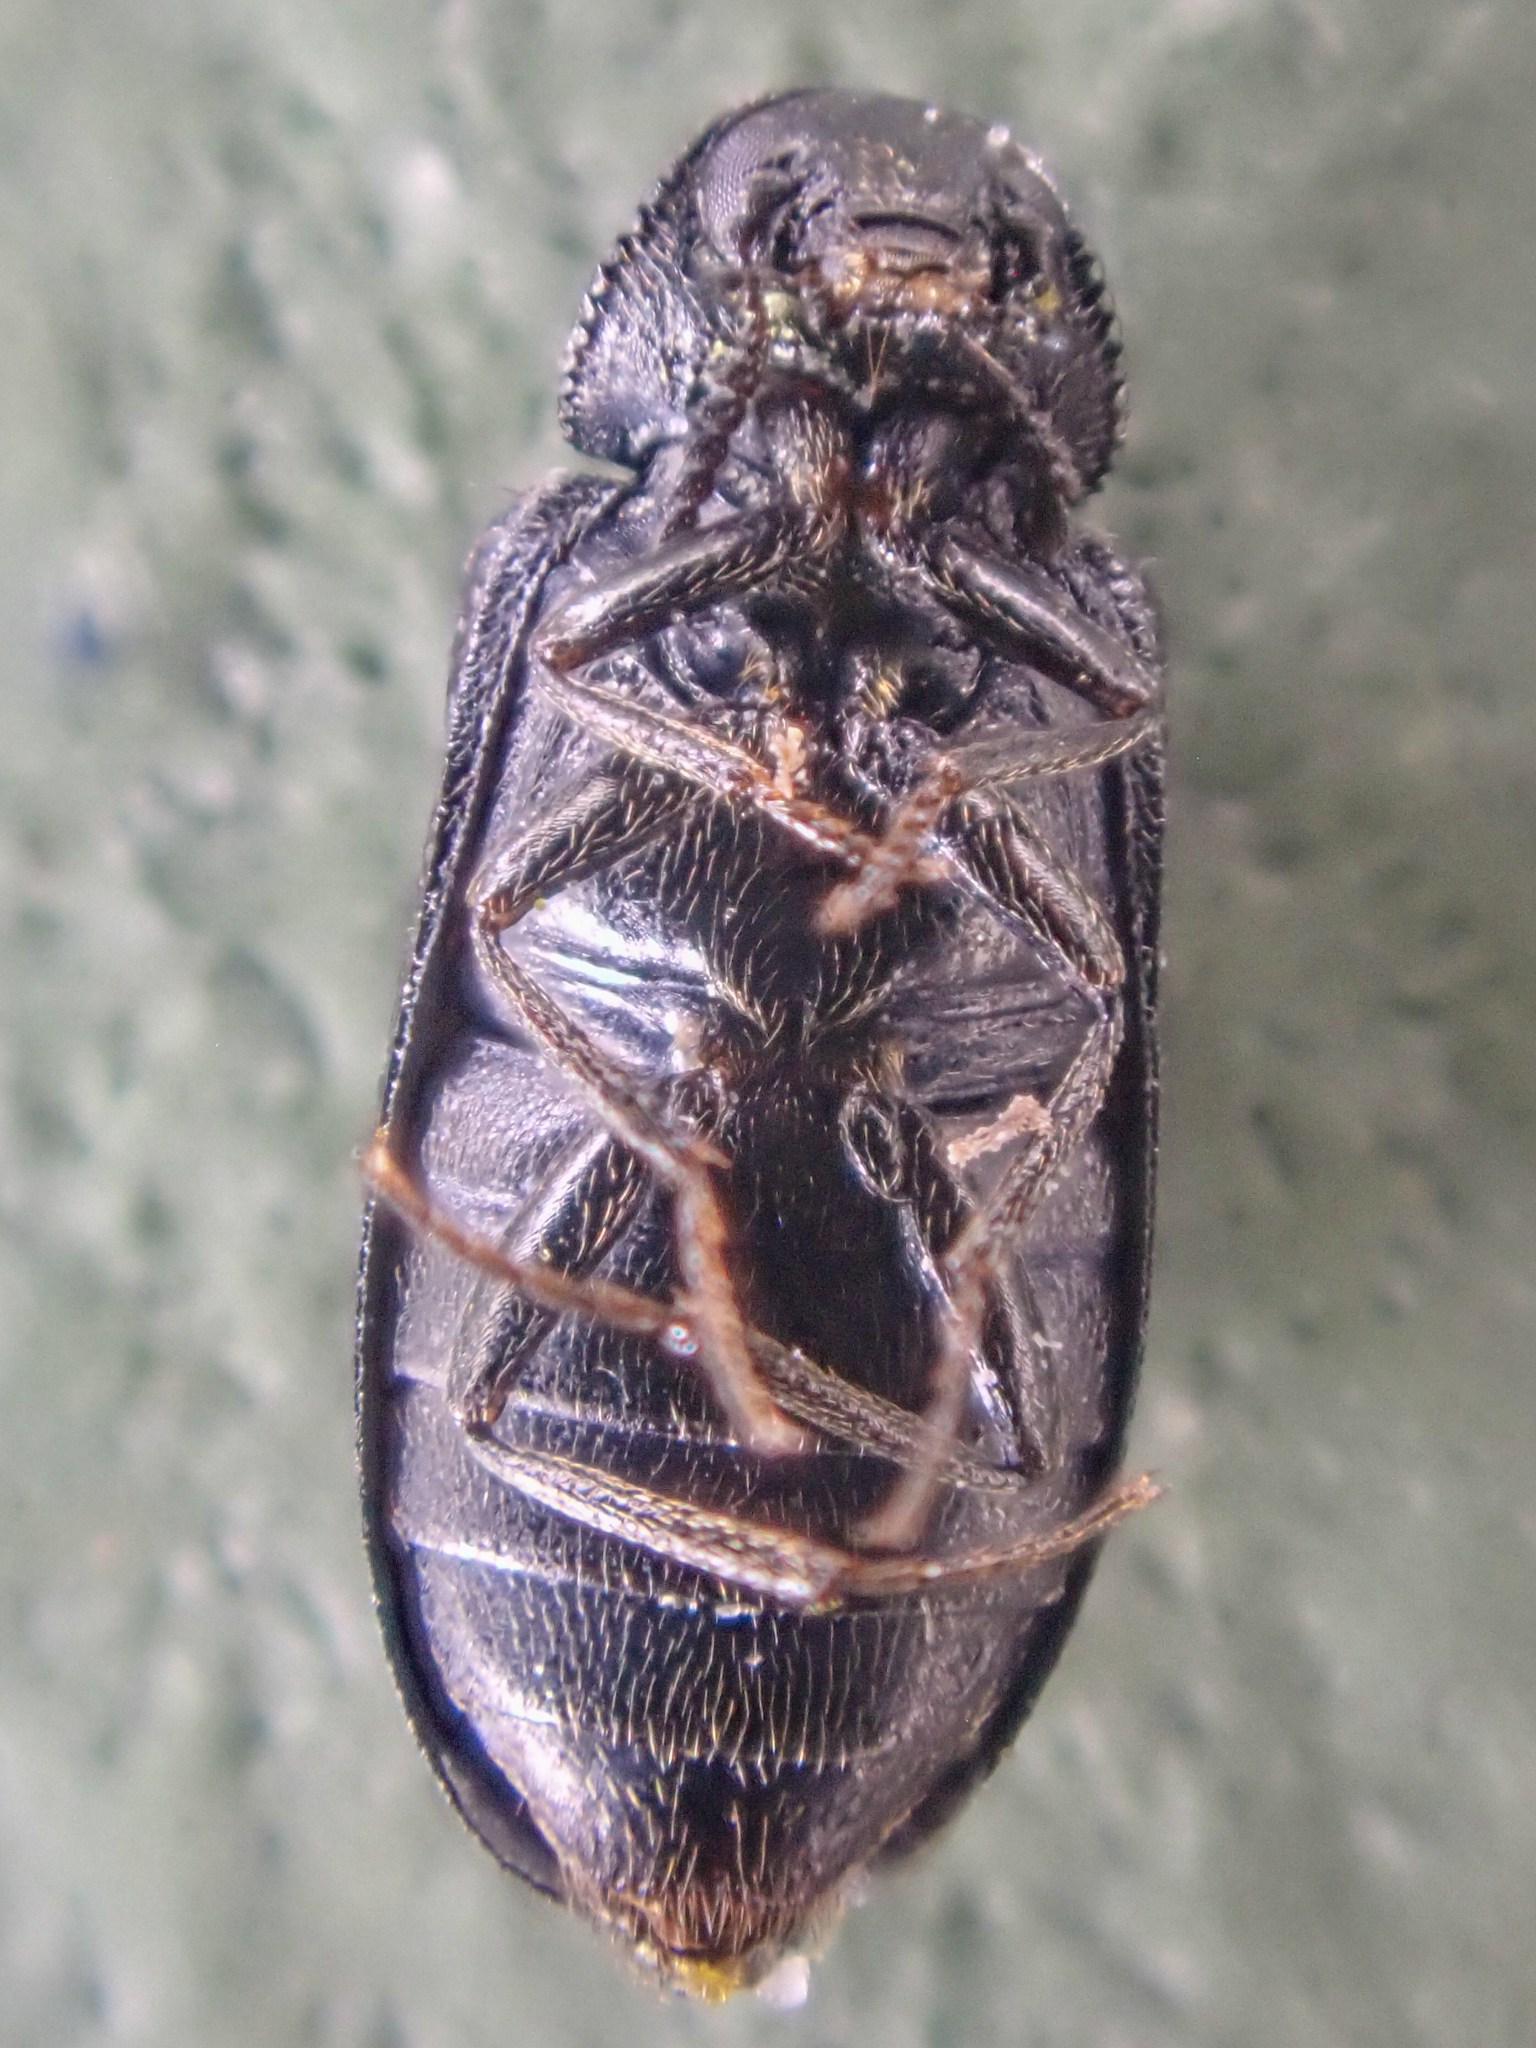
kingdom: Animalia
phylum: Arthropoda
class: Insecta
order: Coleoptera
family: Melyridae
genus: Semijulistus
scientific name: Semijulistus ater
